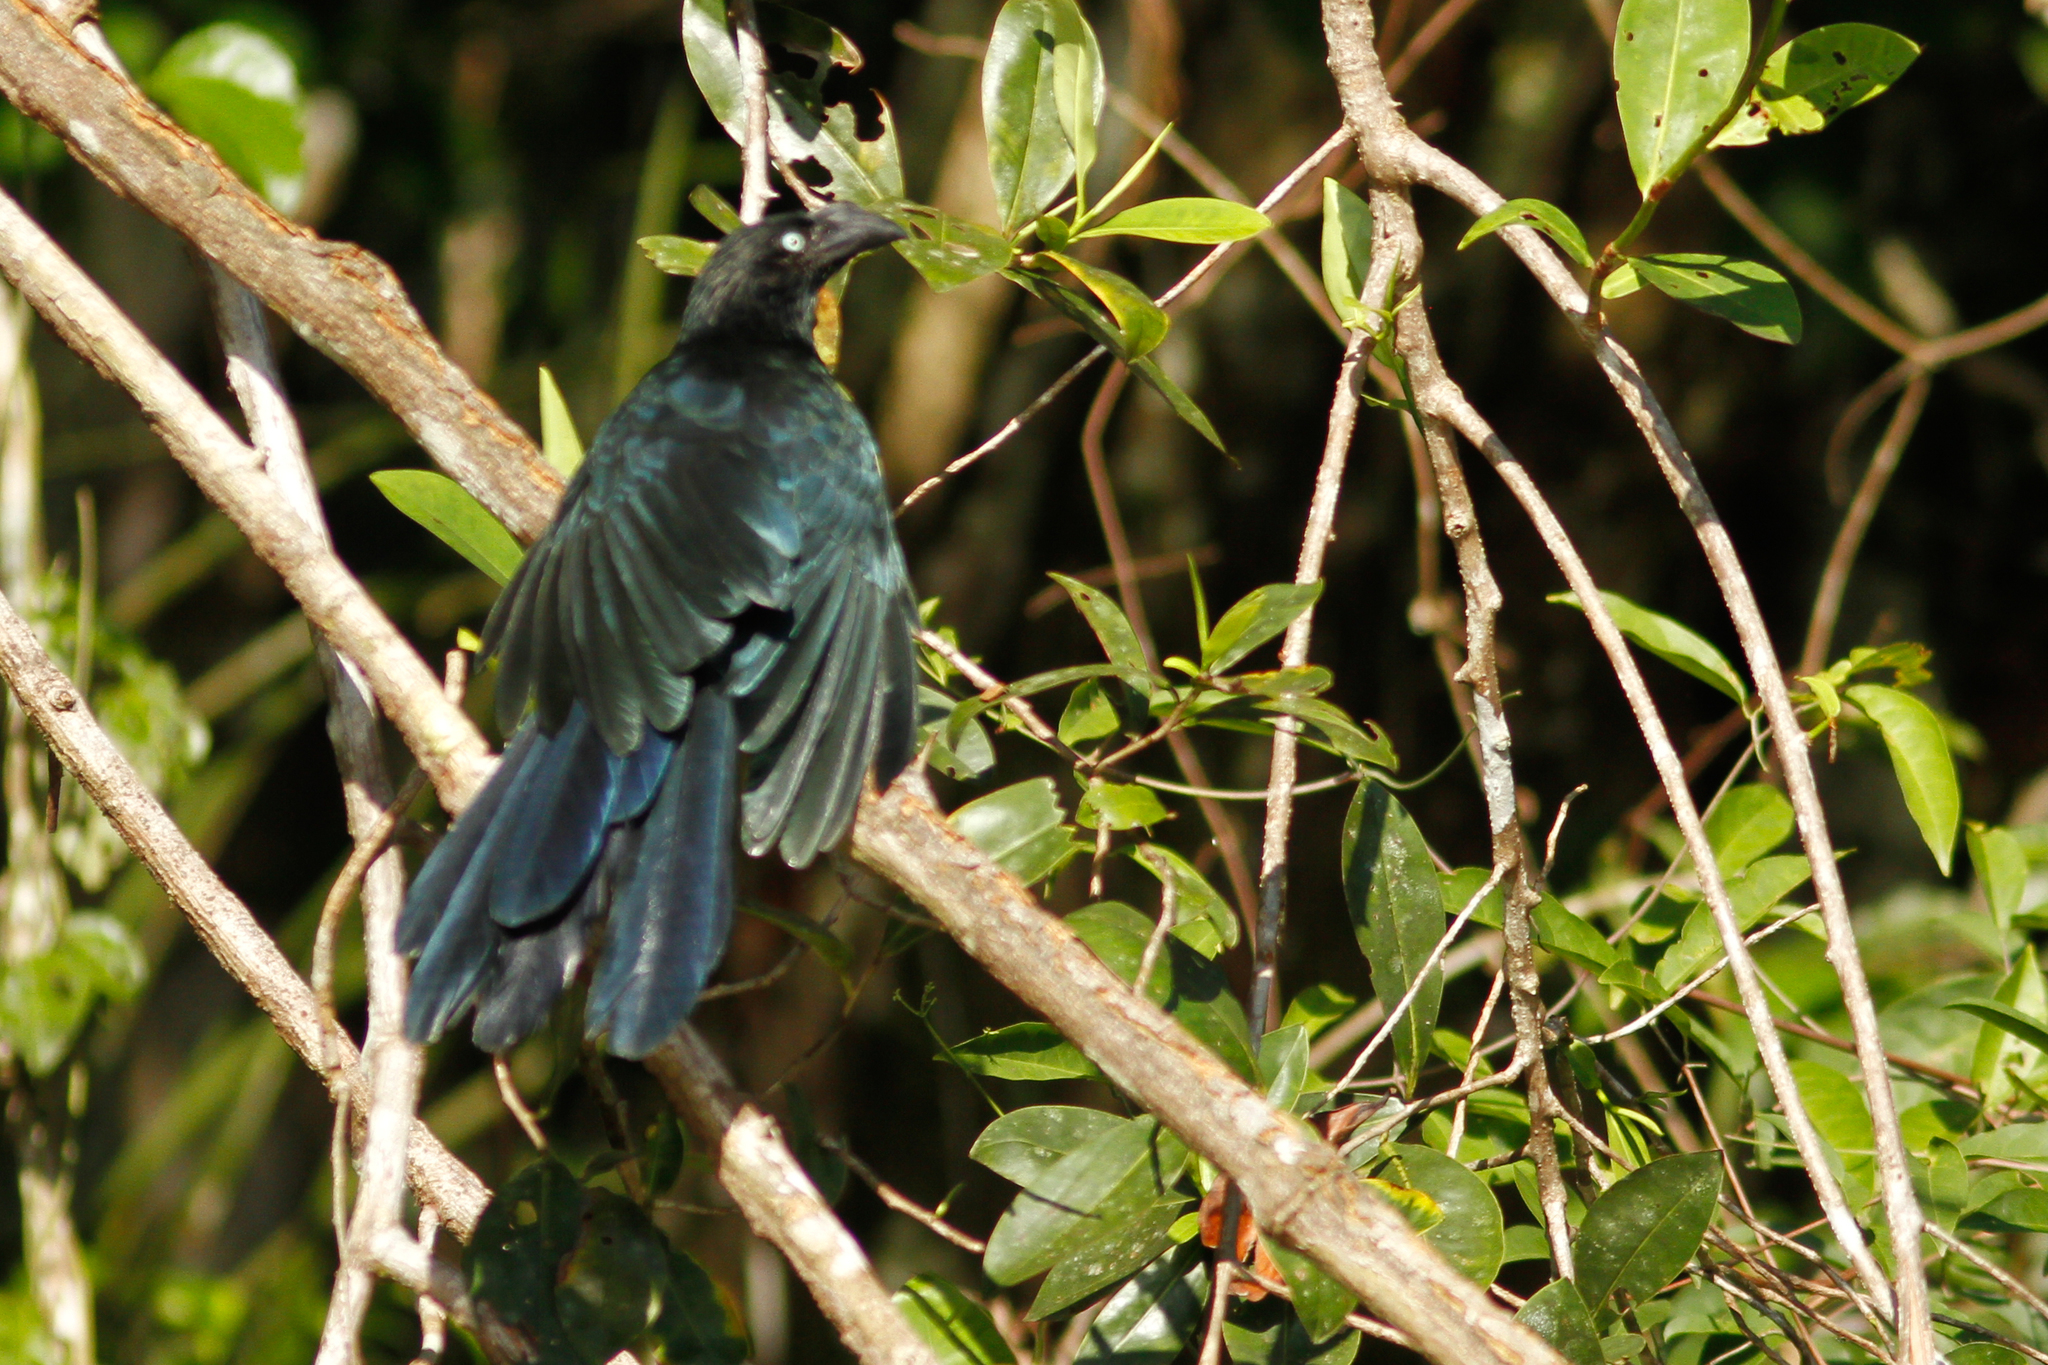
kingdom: Animalia
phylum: Chordata
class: Aves
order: Cuculiformes
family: Cuculidae
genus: Crotophaga
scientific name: Crotophaga major
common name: Greater ani
